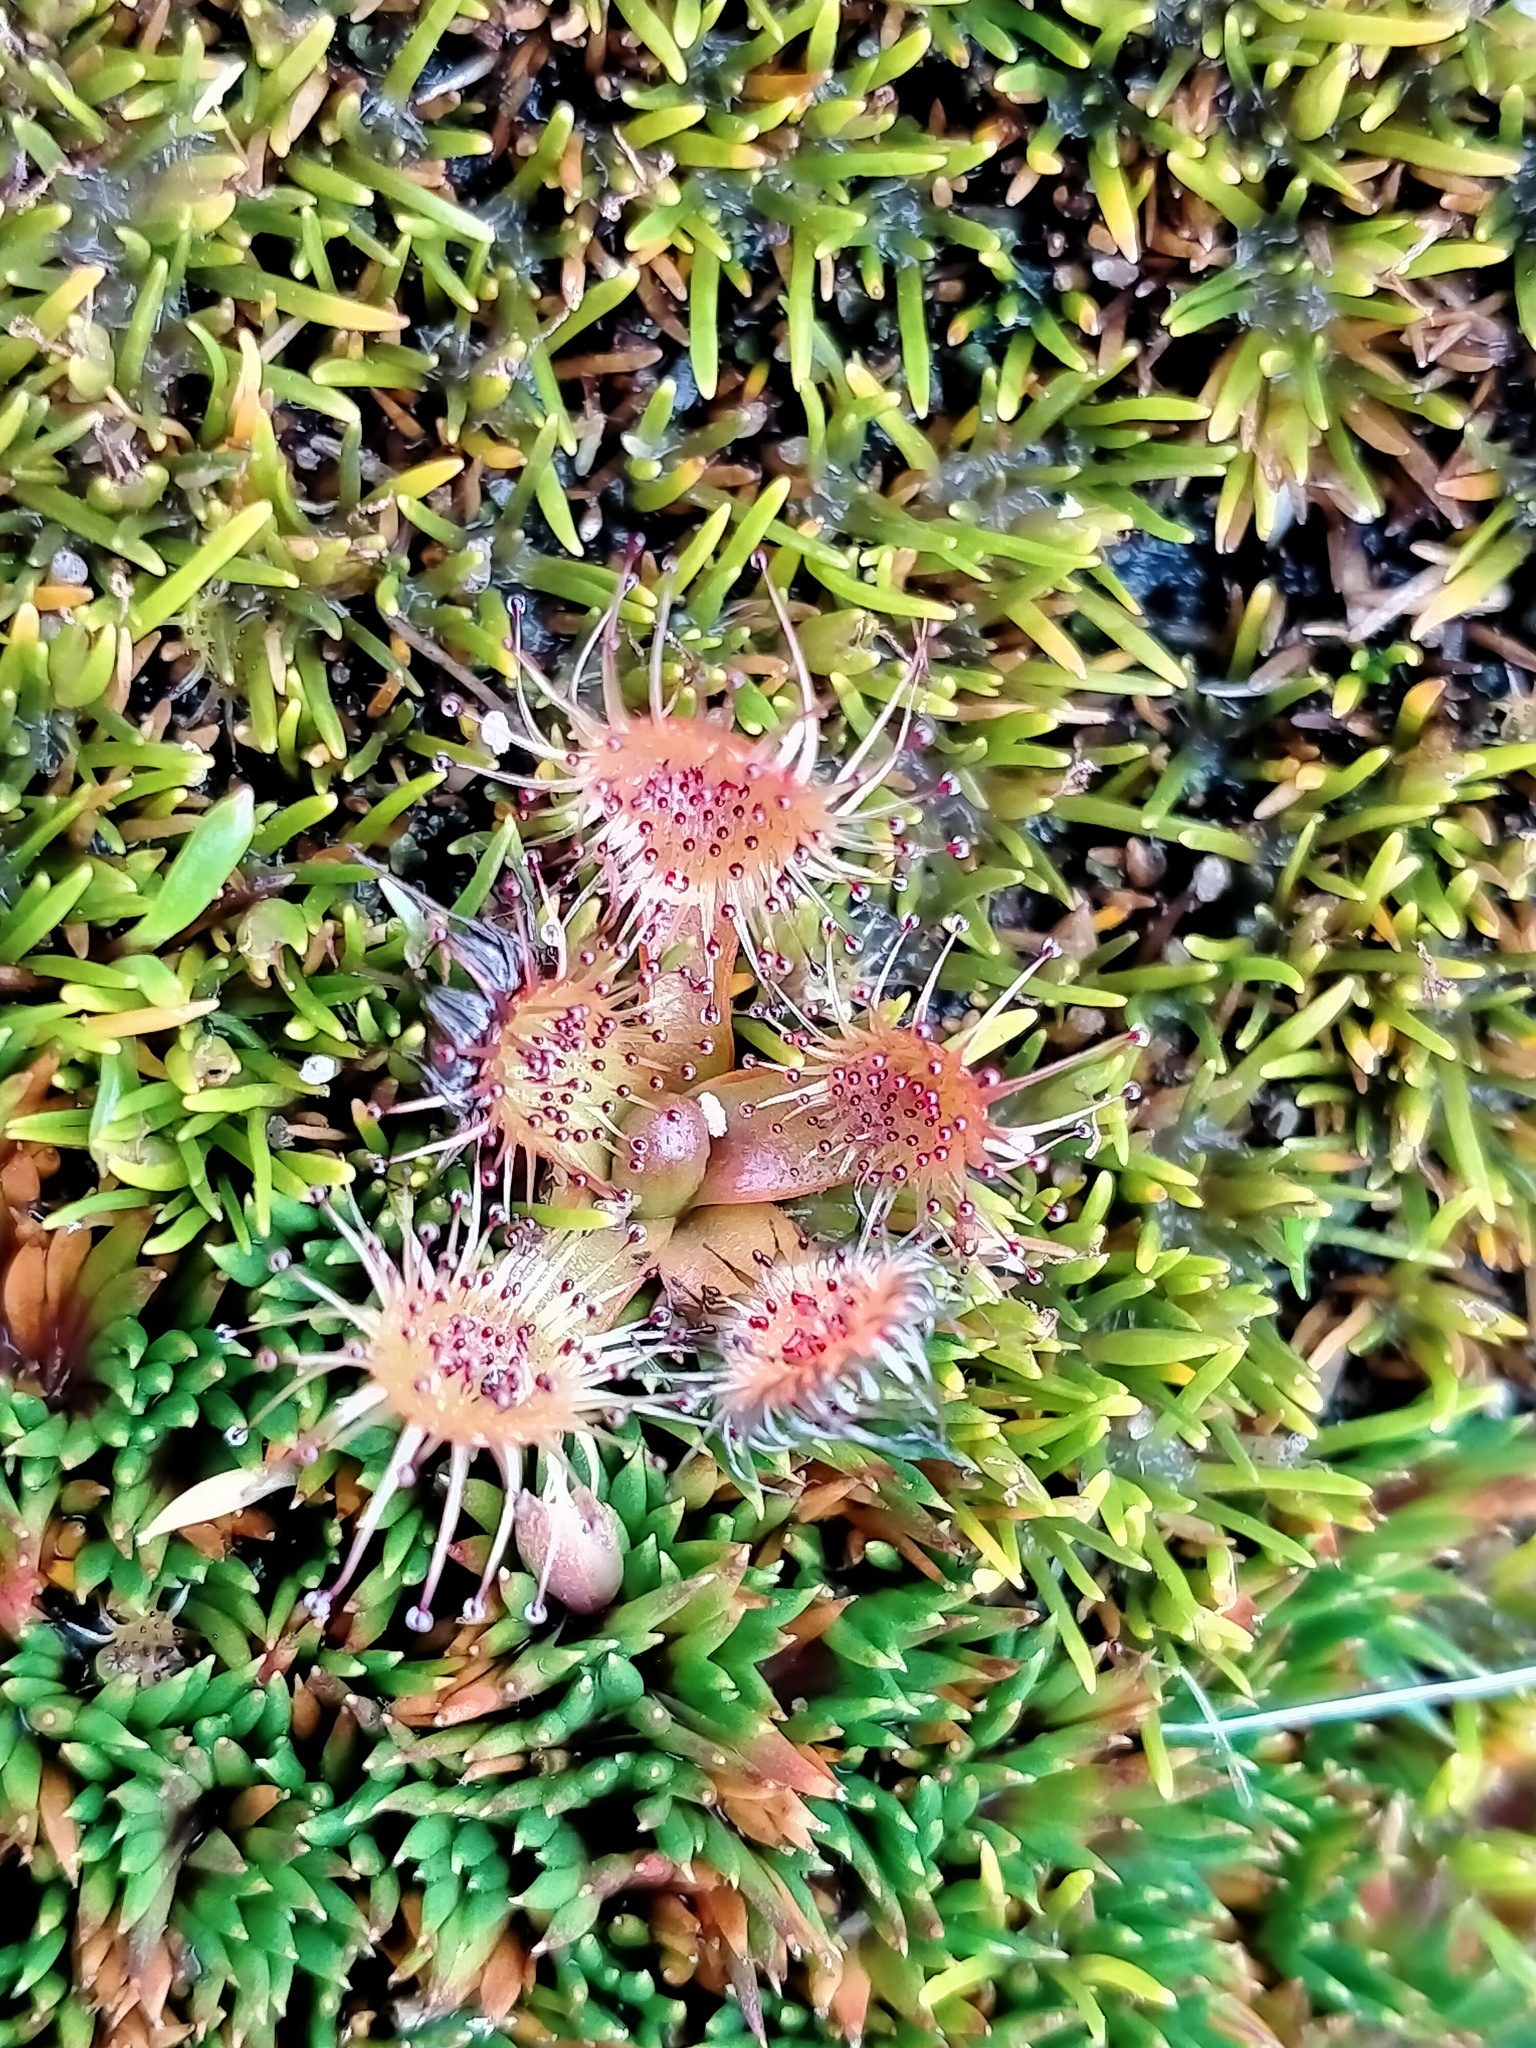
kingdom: Plantae
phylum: Tracheophyta
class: Magnoliopsida
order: Caryophyllales
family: Droseraceae
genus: Drosera
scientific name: Drosera stenopetala
